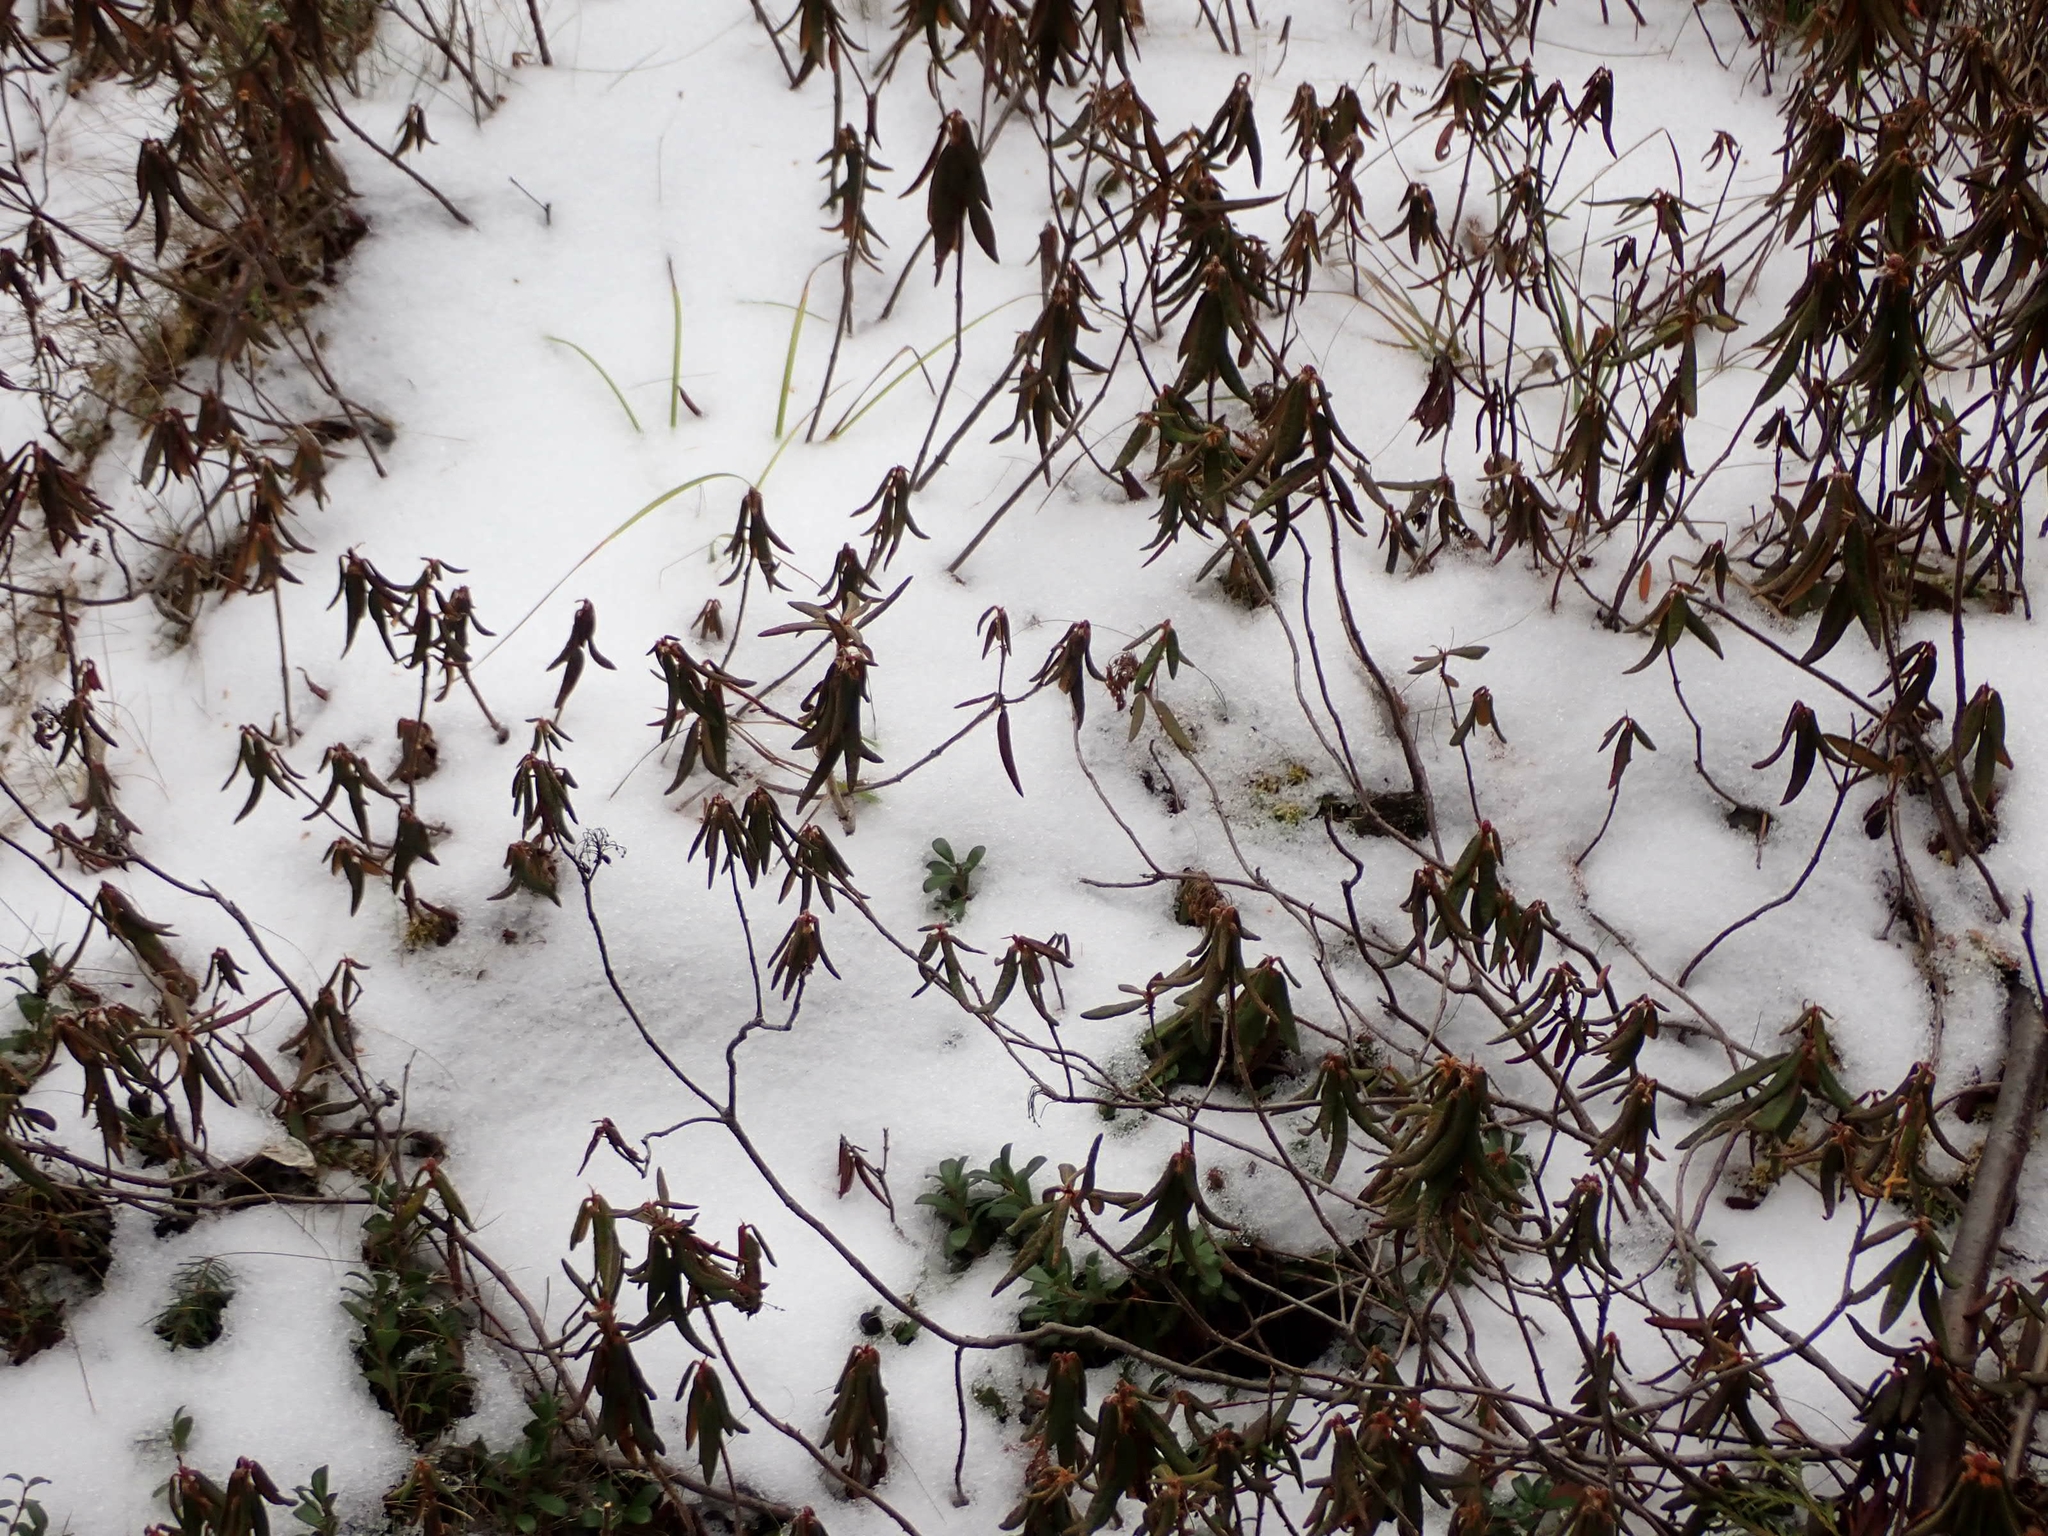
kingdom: Plantae
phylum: Tracheophyta
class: Magnoliopsida
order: Ericales
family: Ericaceae
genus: Rhododendron
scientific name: Rhododendron groenlandicum
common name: Bog labrador tea
